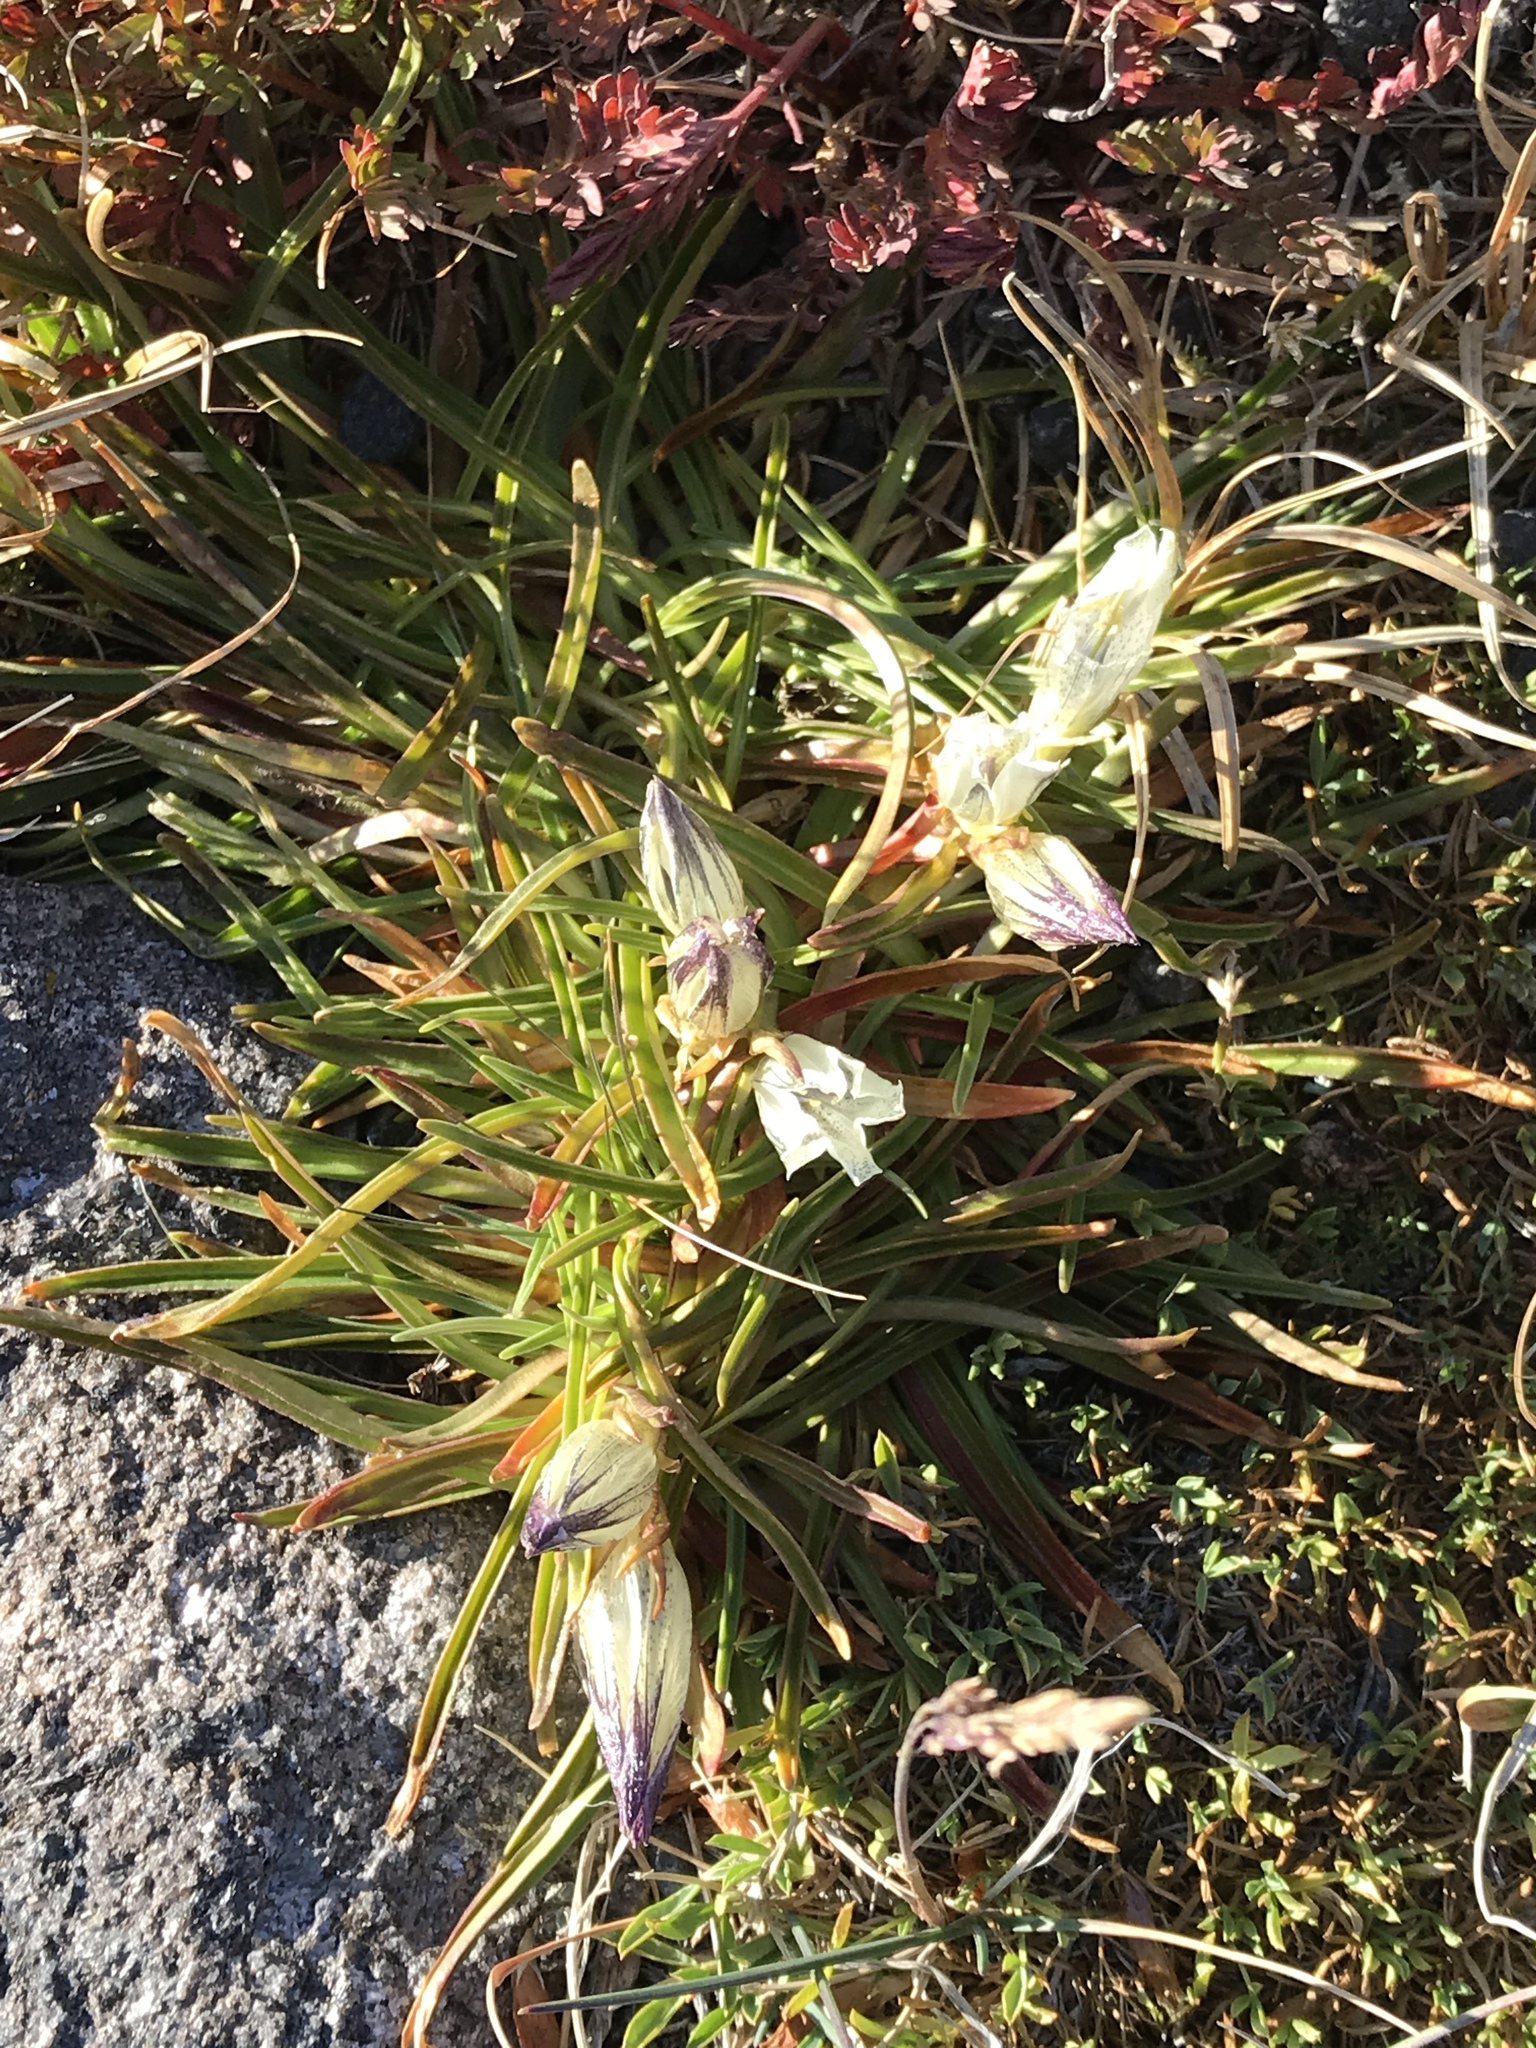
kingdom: Plantae
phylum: Tracheophyta
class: Magnoliopsida
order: Gentianales
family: Gentianaceae
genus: Gentiana
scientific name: Gentiana algida
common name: Arctic gentian
